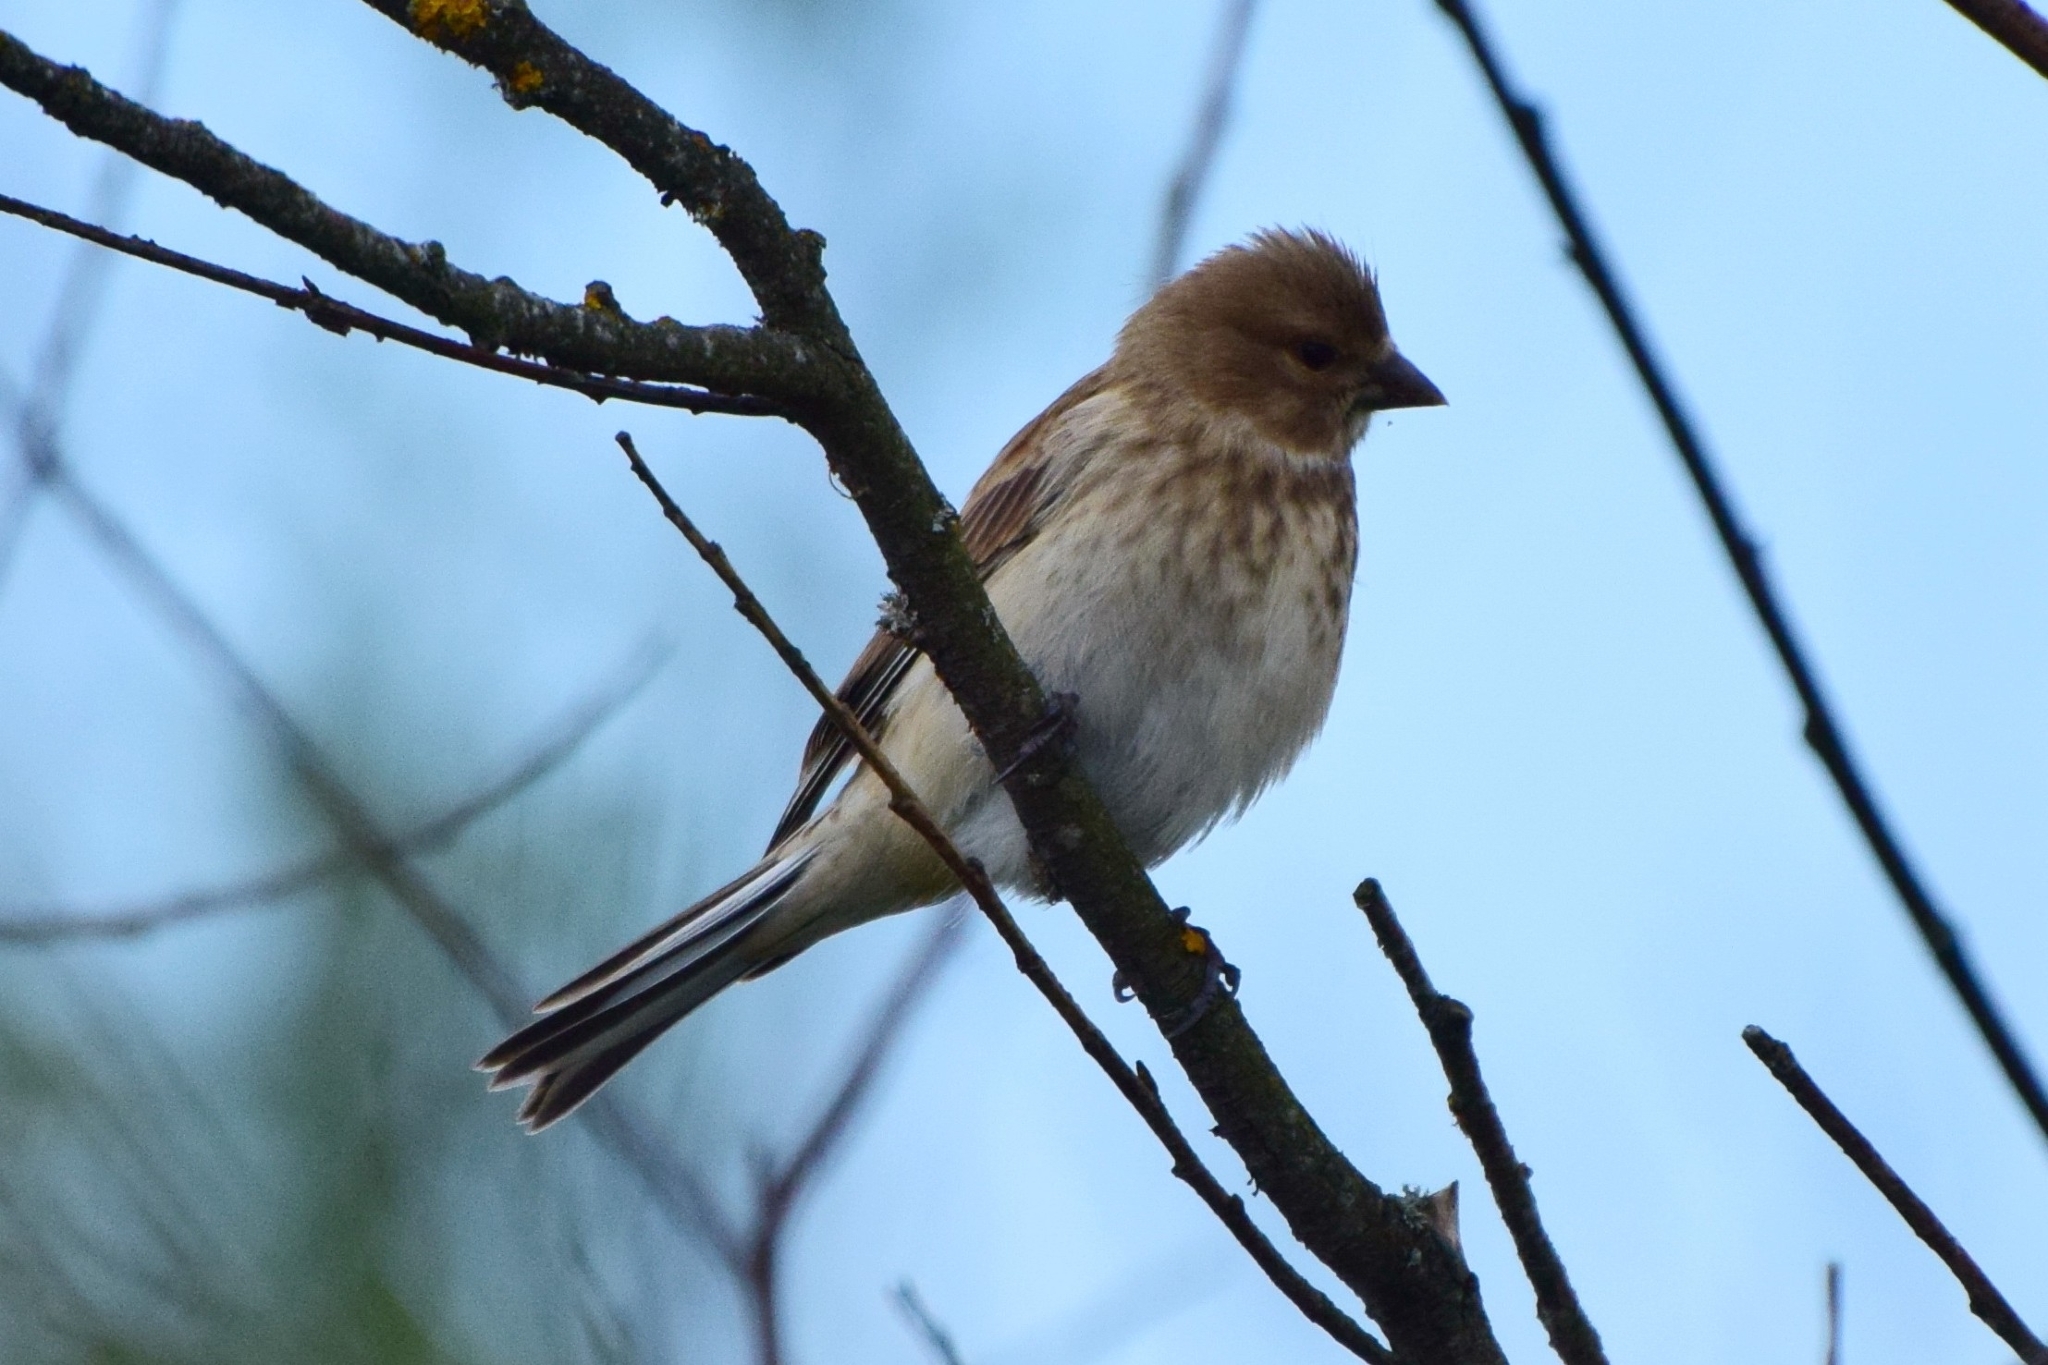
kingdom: Animalia
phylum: Chordata
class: Aves
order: Passeriformes
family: Fringillidae
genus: Linaria
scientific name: Linaria cannabina
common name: Common linnet
